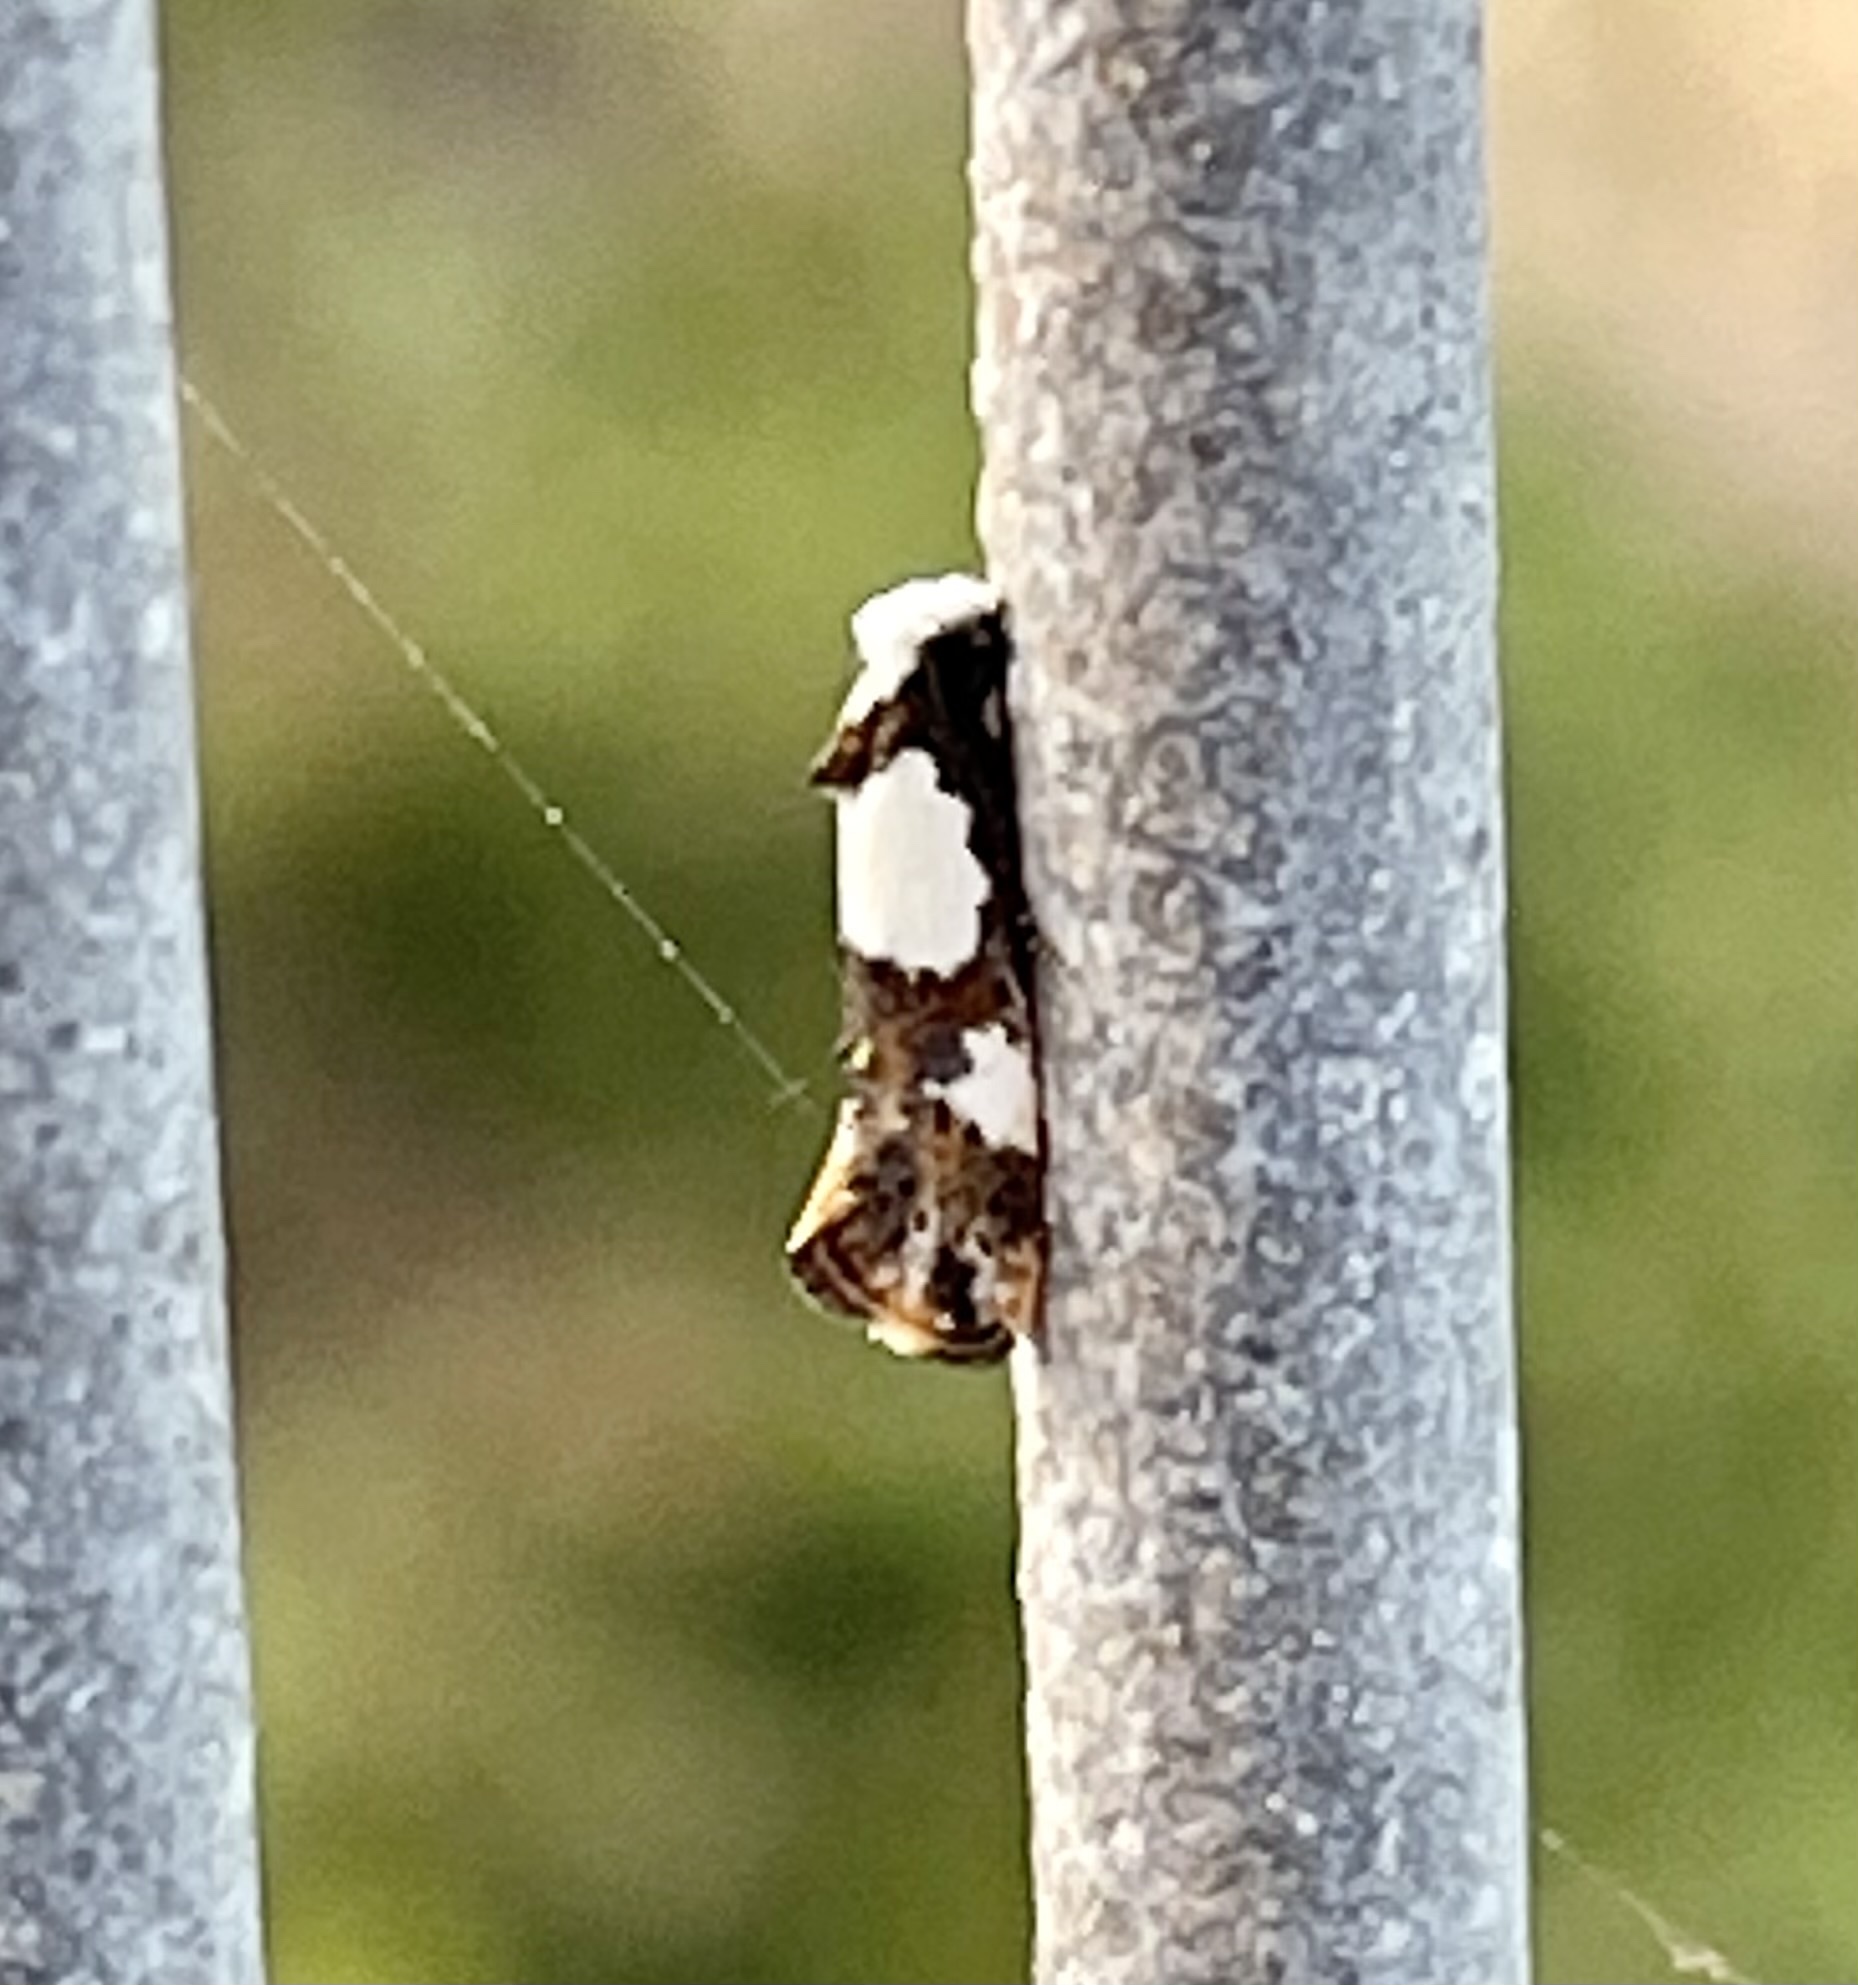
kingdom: Animalia
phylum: Arthropoda
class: Insecta
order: Lepidoptera
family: Tineidae
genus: Monopis
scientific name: Monopis meliorella
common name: Blotched monopis moth
